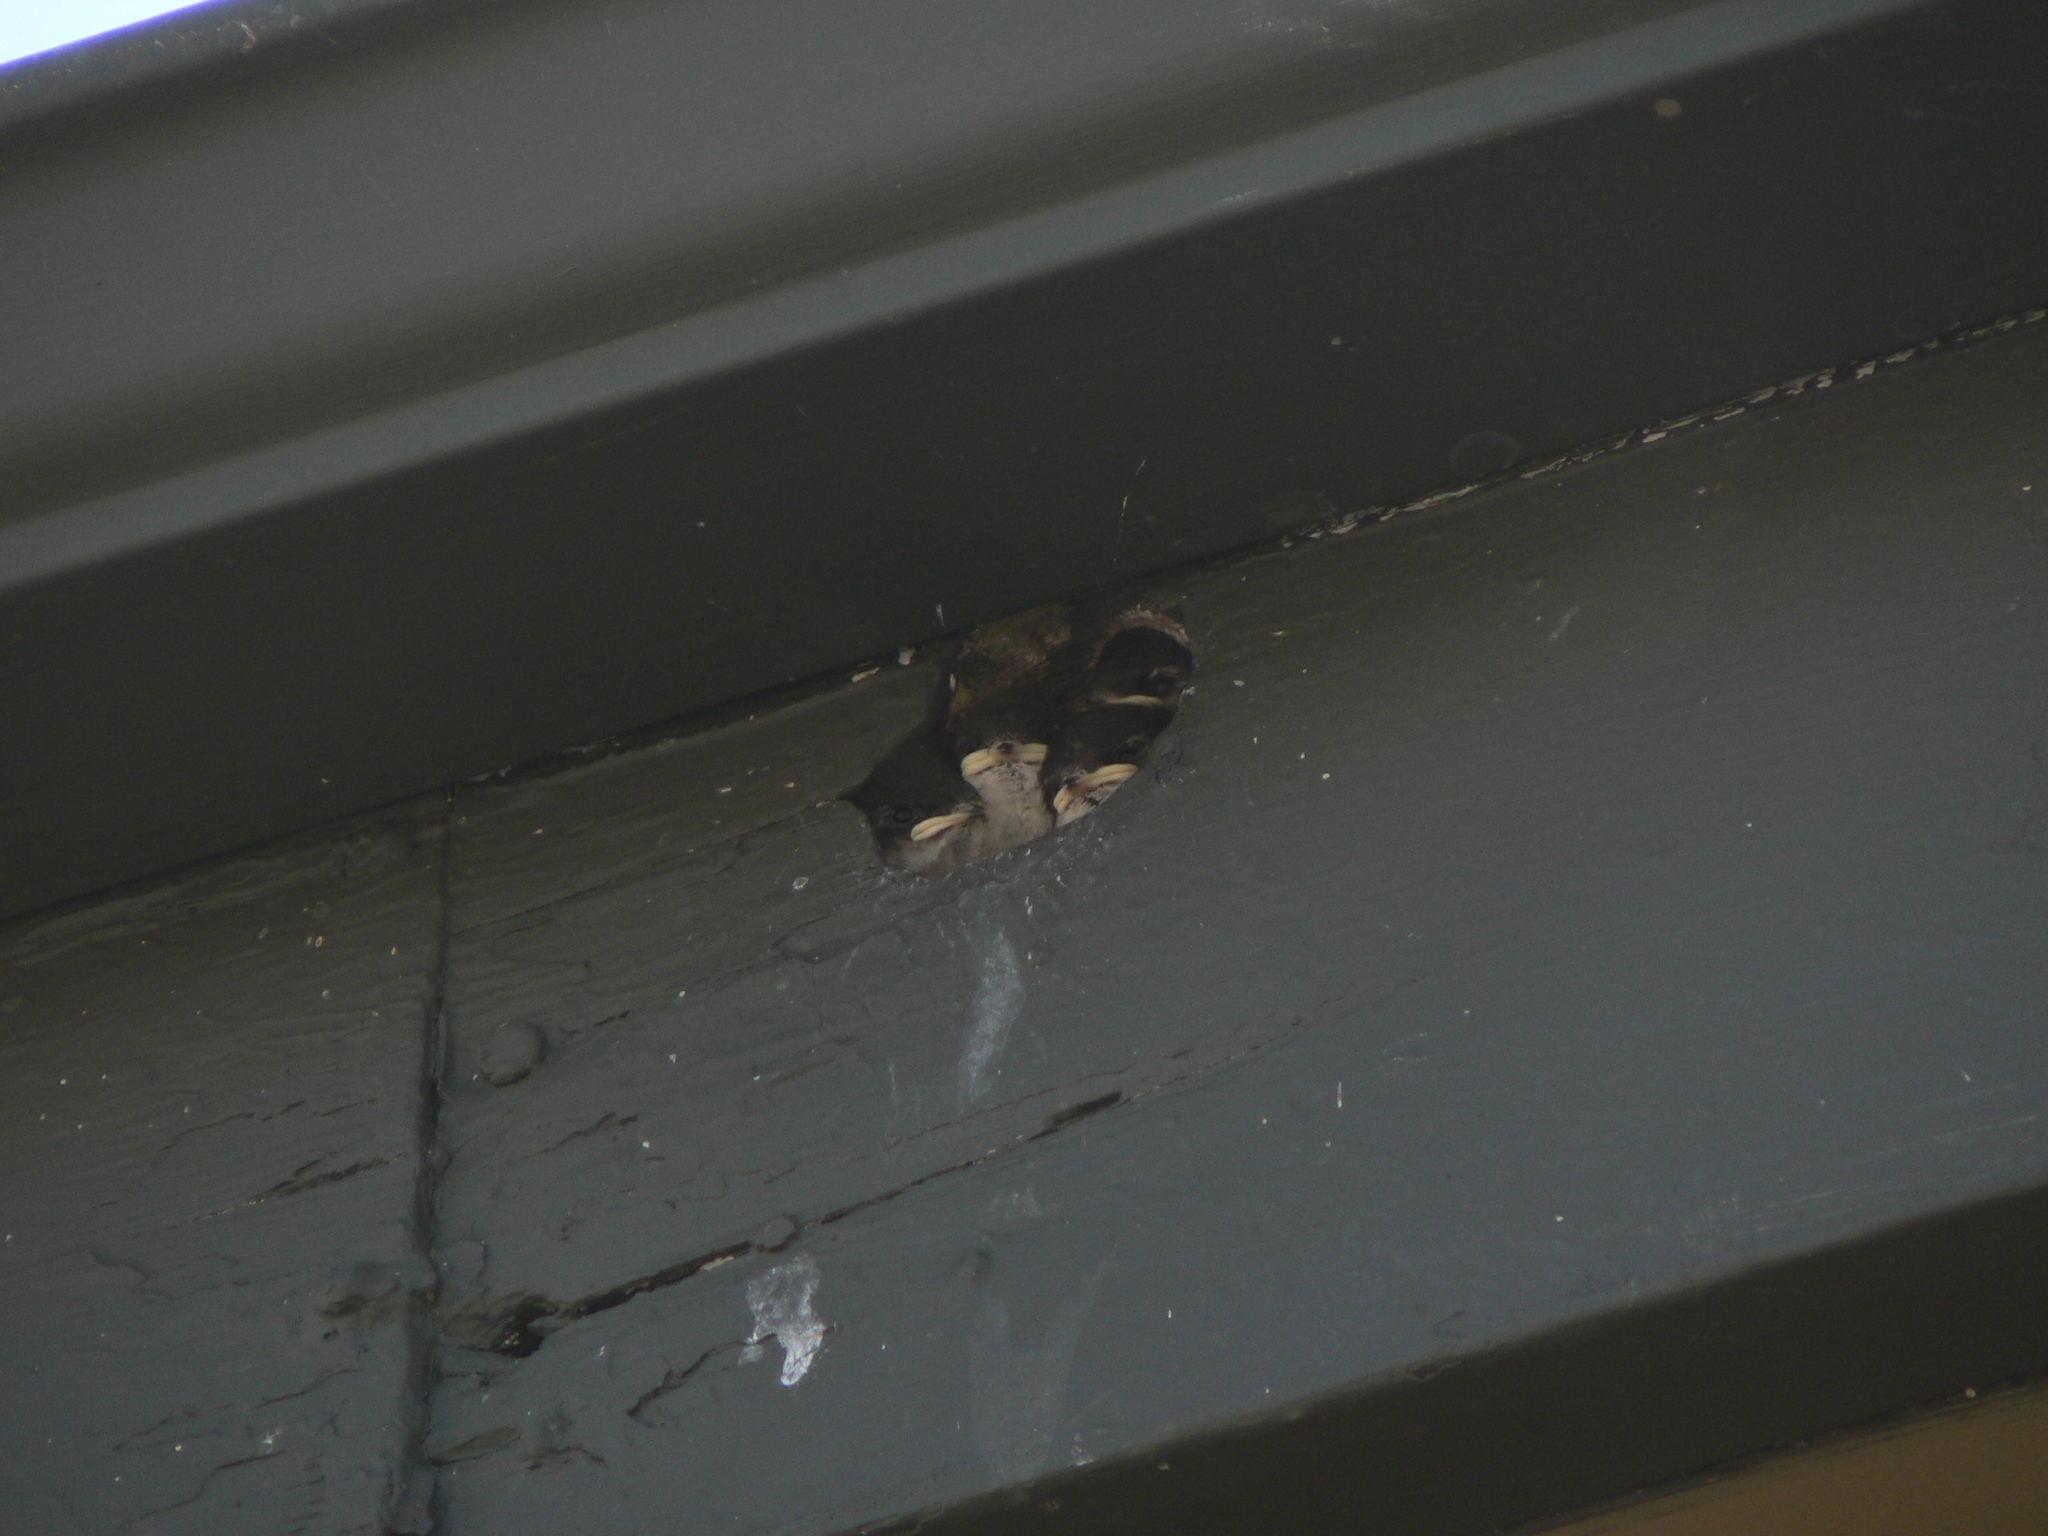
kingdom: Animalia
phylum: Chordata
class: Aves
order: Passeriformes
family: Hirundinidae
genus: Tachycineta
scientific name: Tachycineta bicolor
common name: Tree swallow
